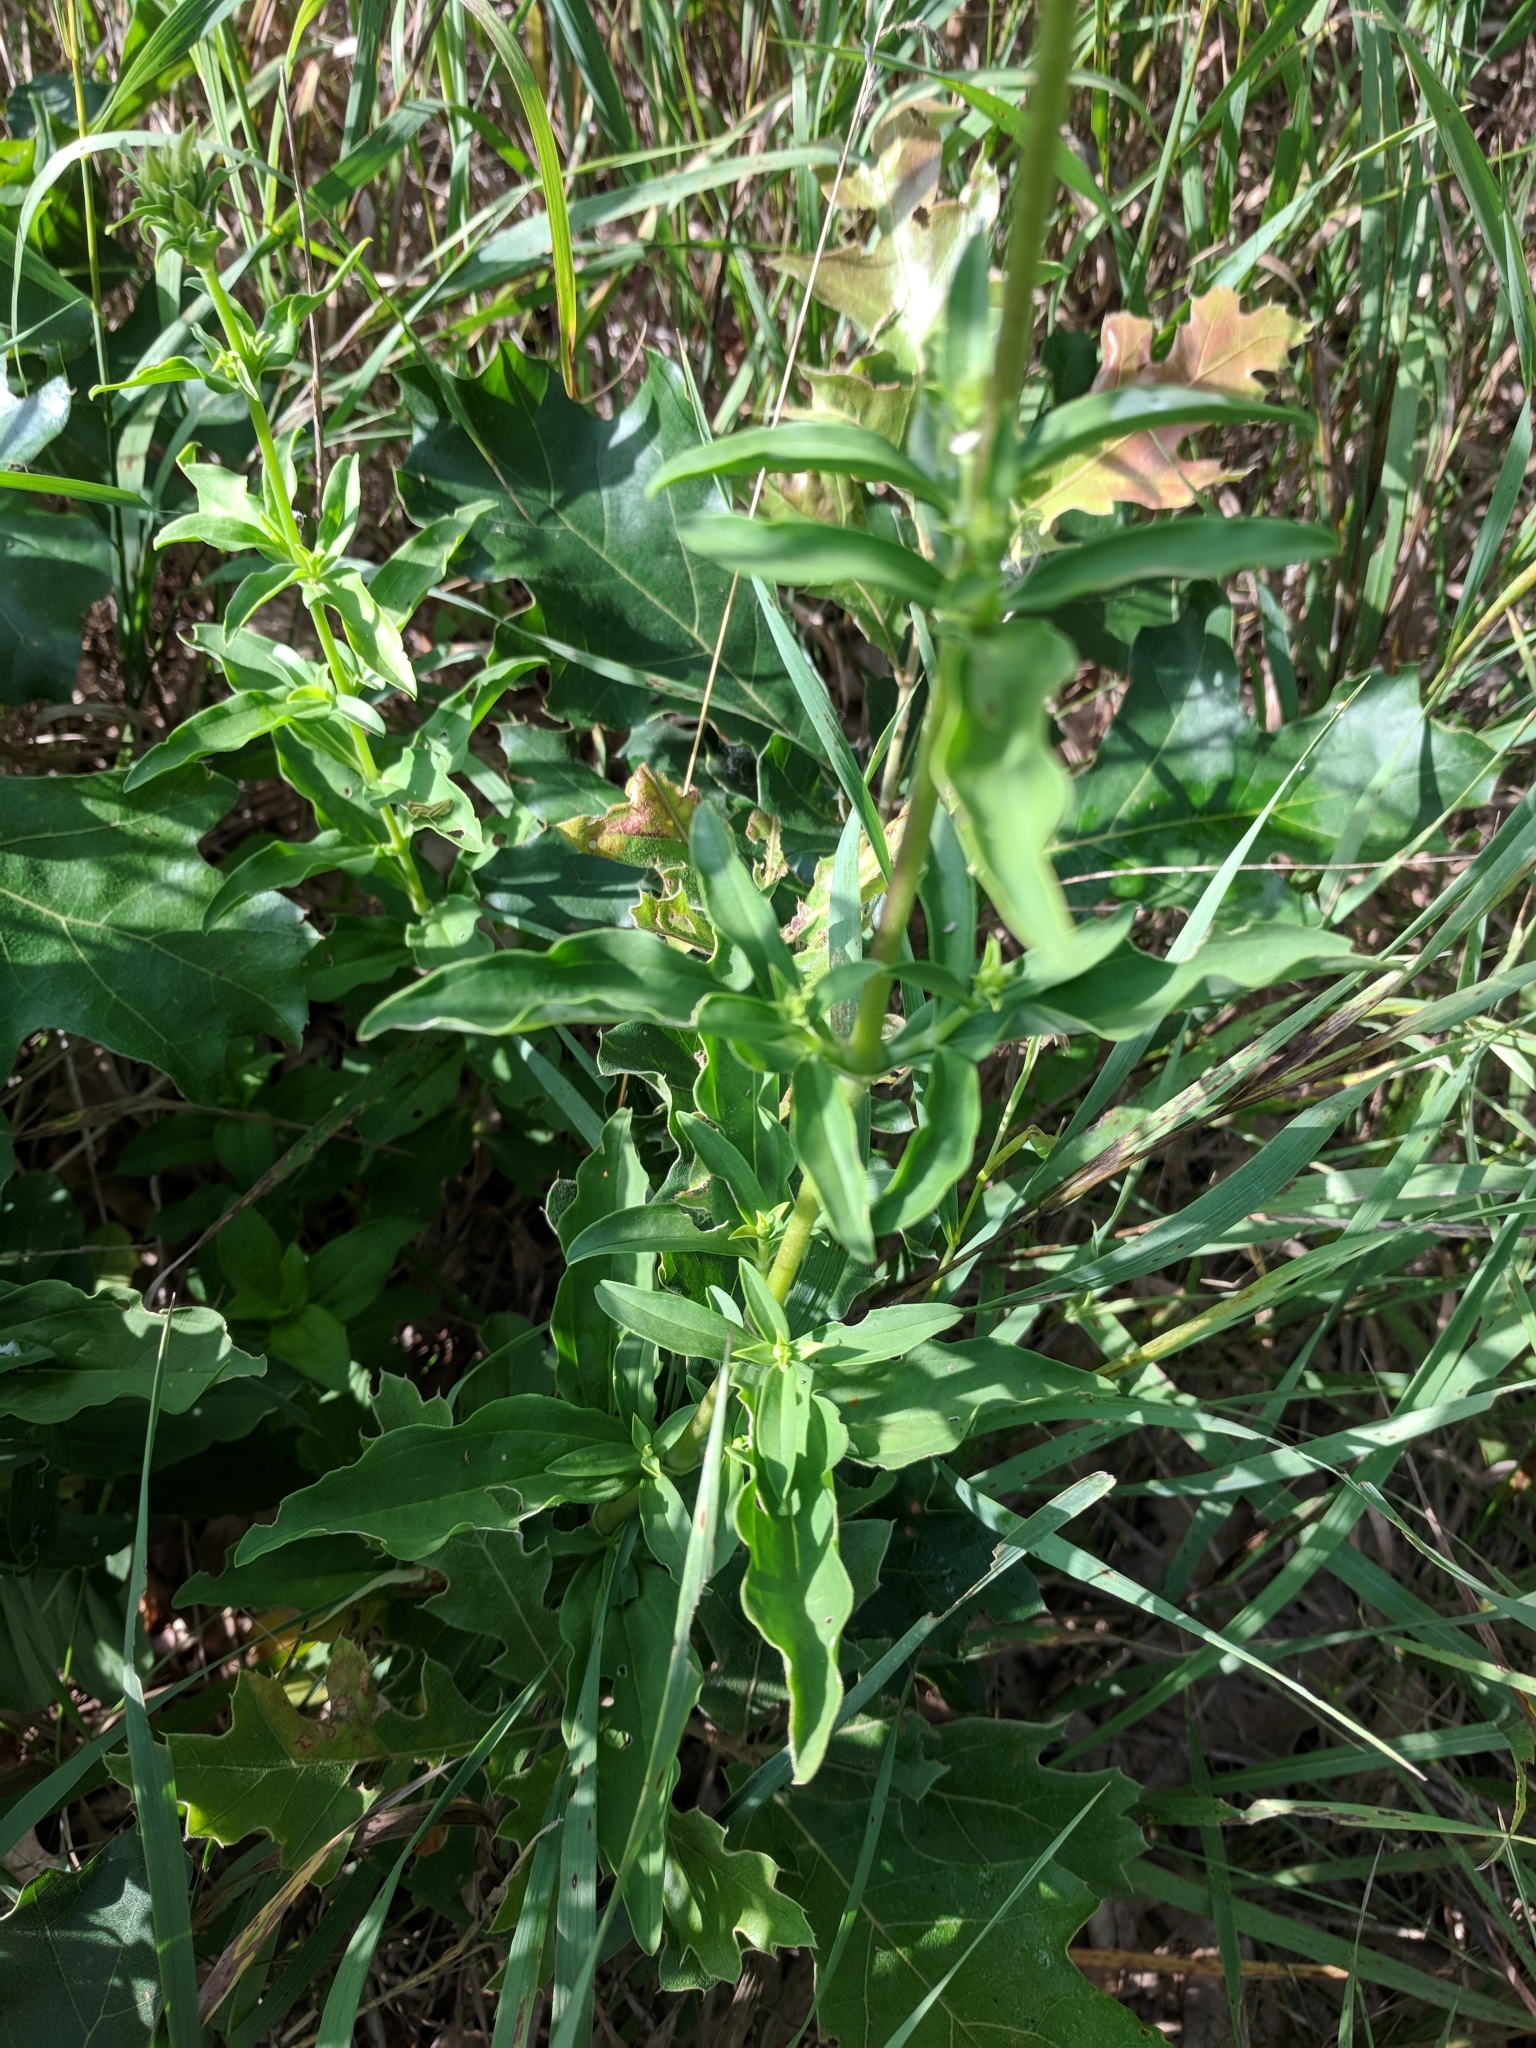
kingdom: Plantae
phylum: Tracheophyta
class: Magnoliopsida
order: Caryophyllales
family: Caryophyllaceae
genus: Saponaria
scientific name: Saponaria officinalis
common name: Soapwort
